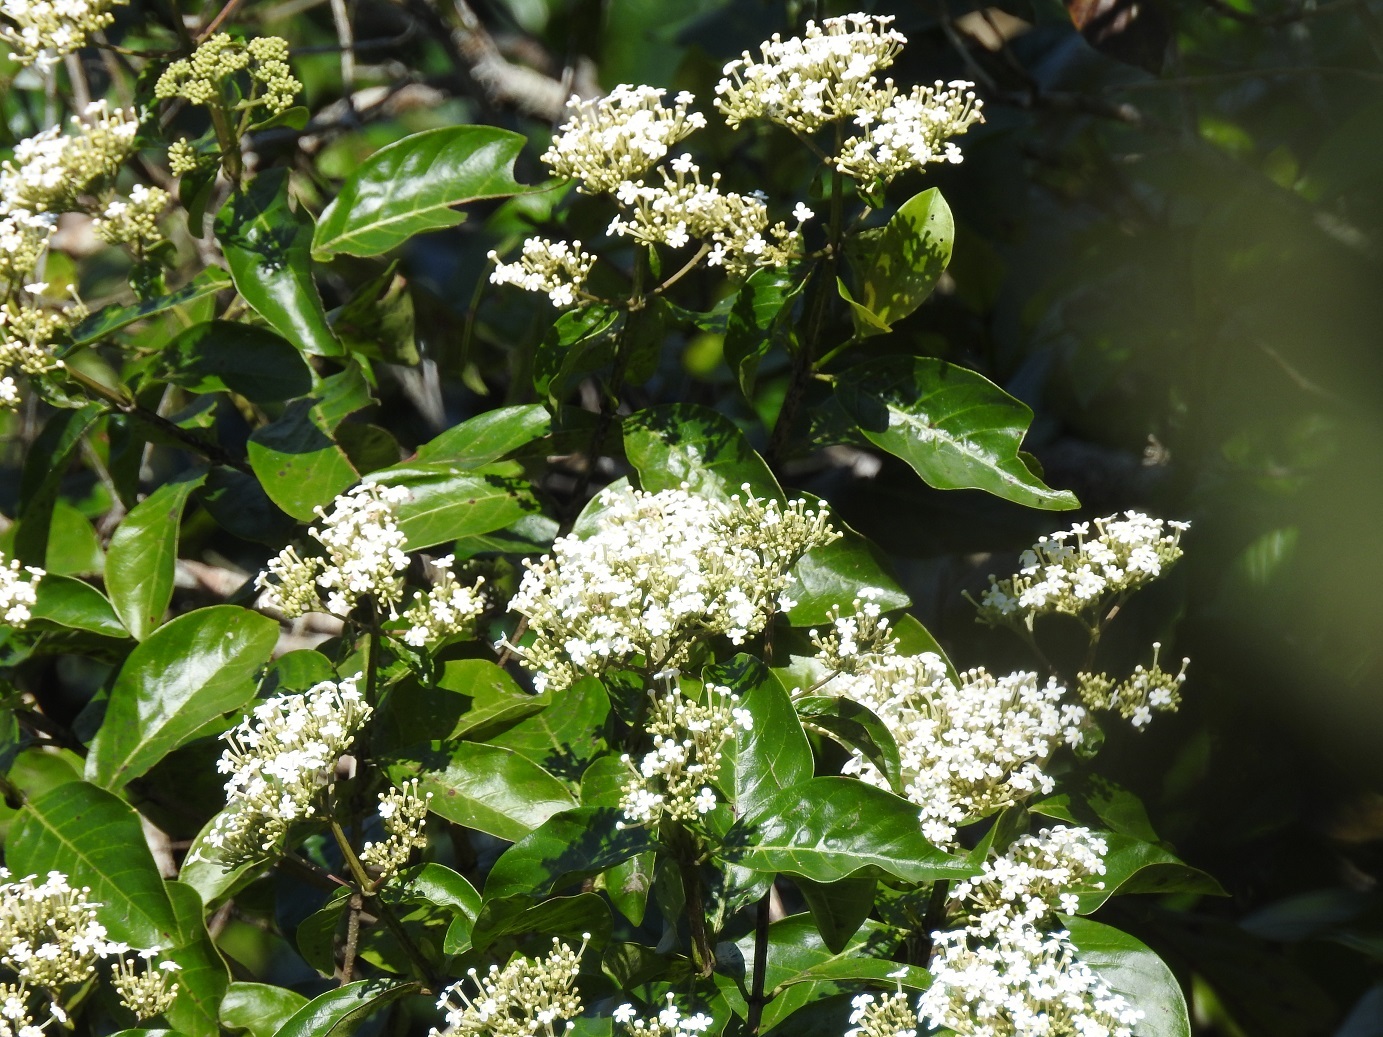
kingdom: Plantae
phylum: Tracheophyta
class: Magnoliopsida
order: Gentianales
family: Rubiaceae
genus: Rogiera
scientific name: Rogiera stenosiphon
